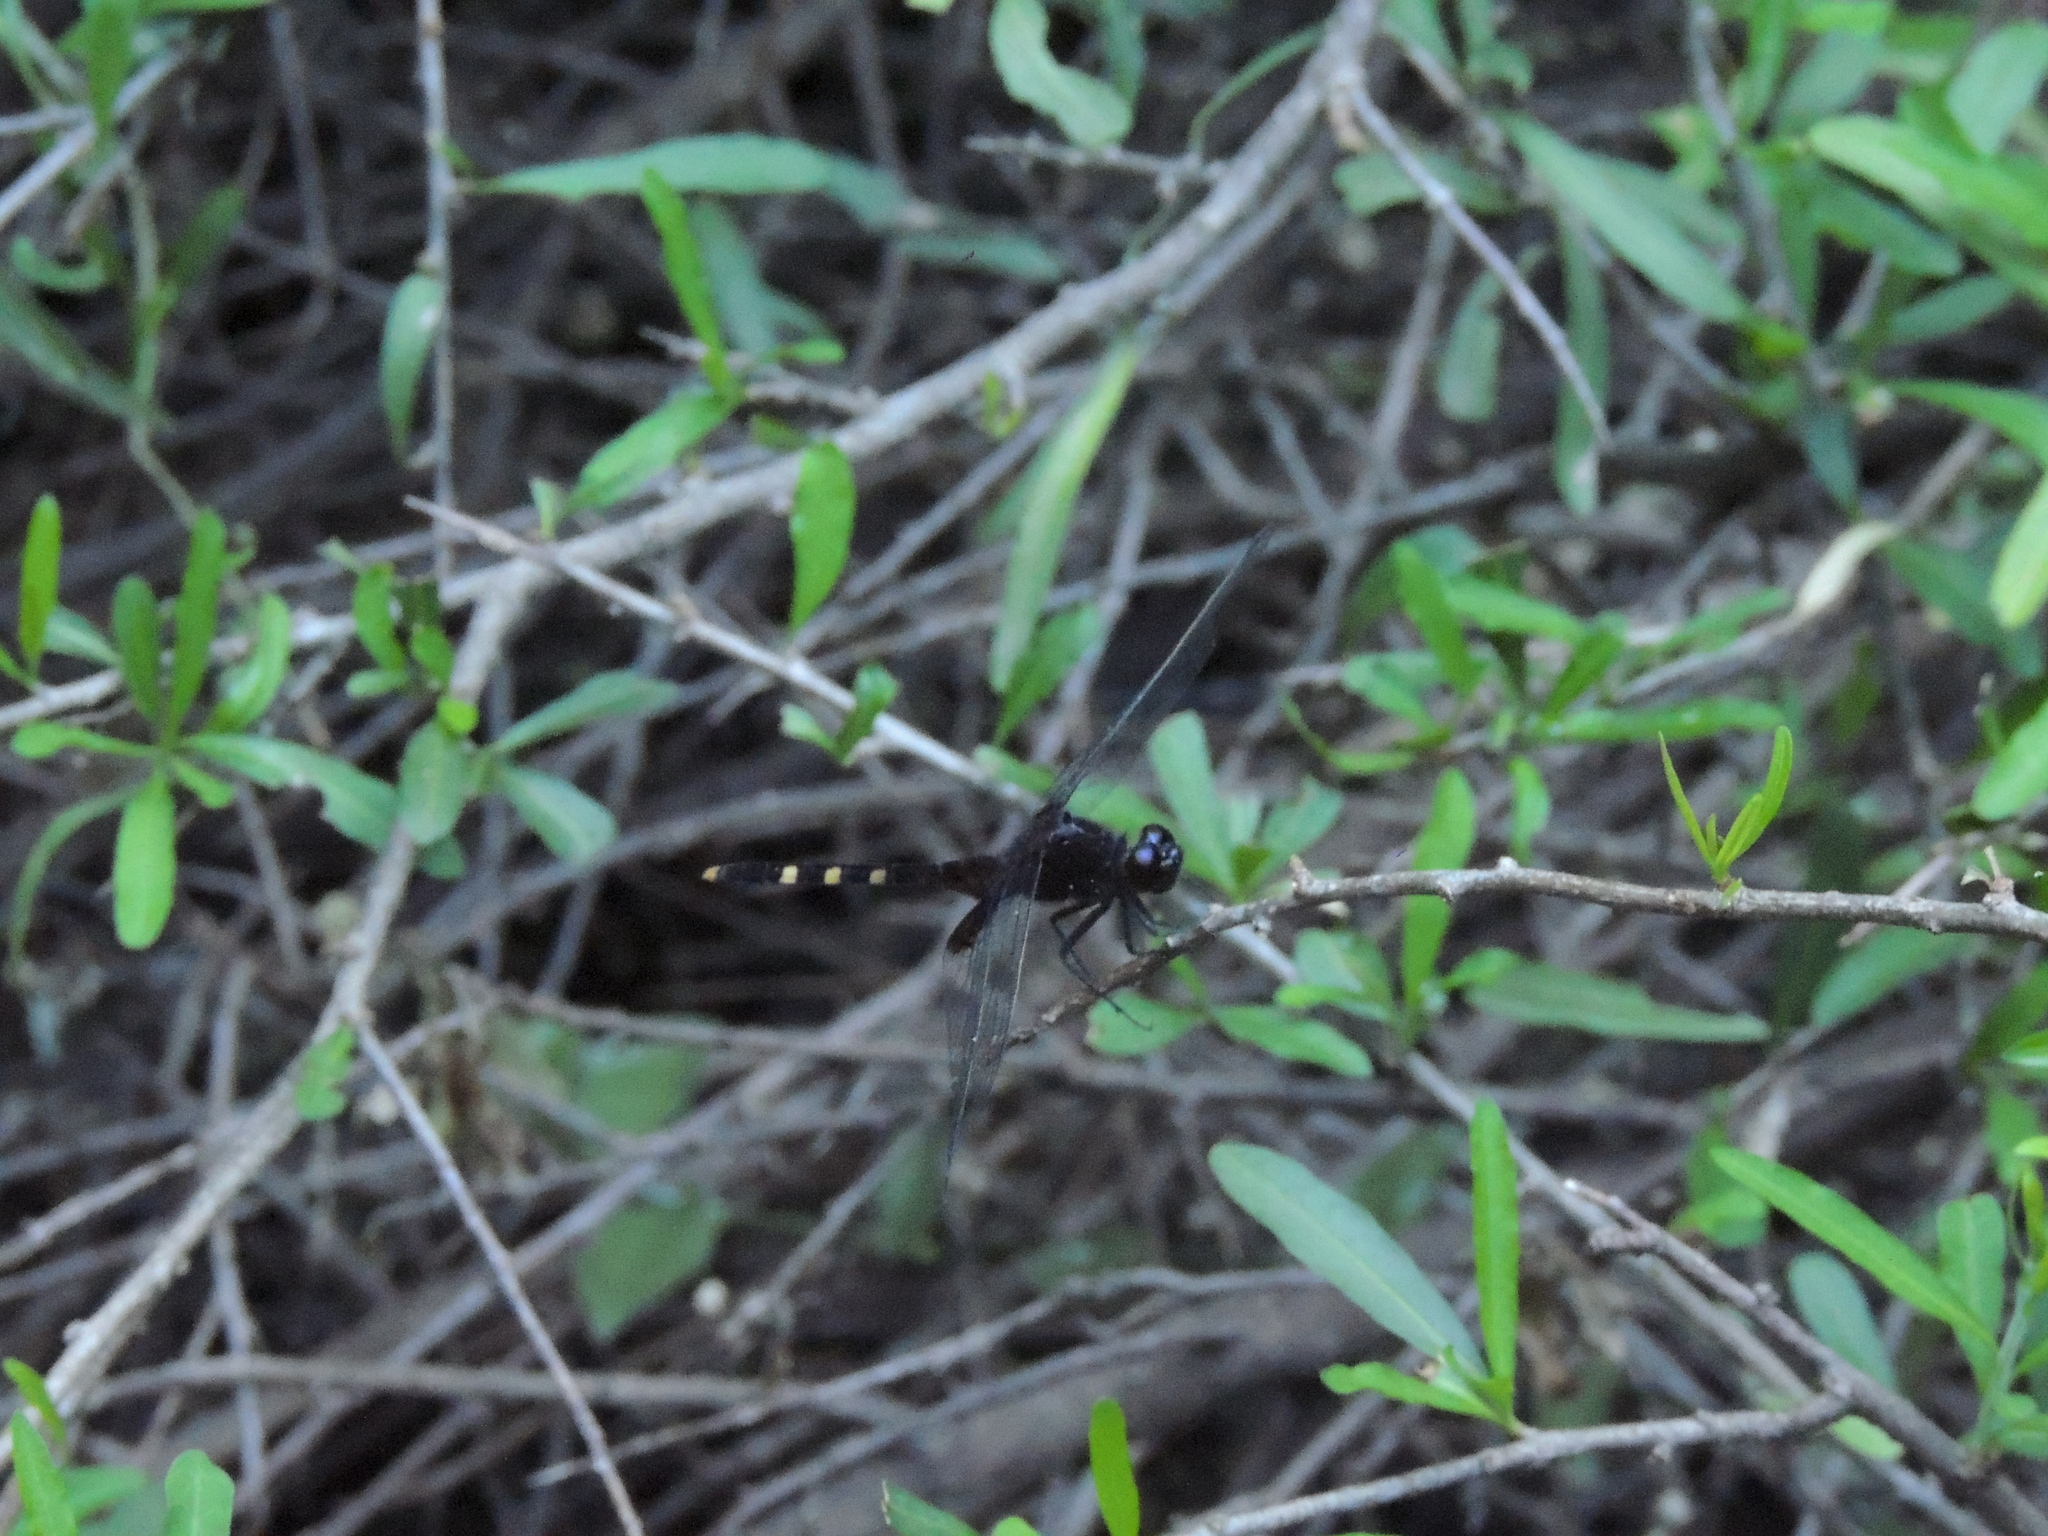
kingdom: Animalia
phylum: Arthropoda
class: Insecta
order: Odonata
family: Libellulidae
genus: Erythemis
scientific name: Erythemis attala
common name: Black pondhawk
